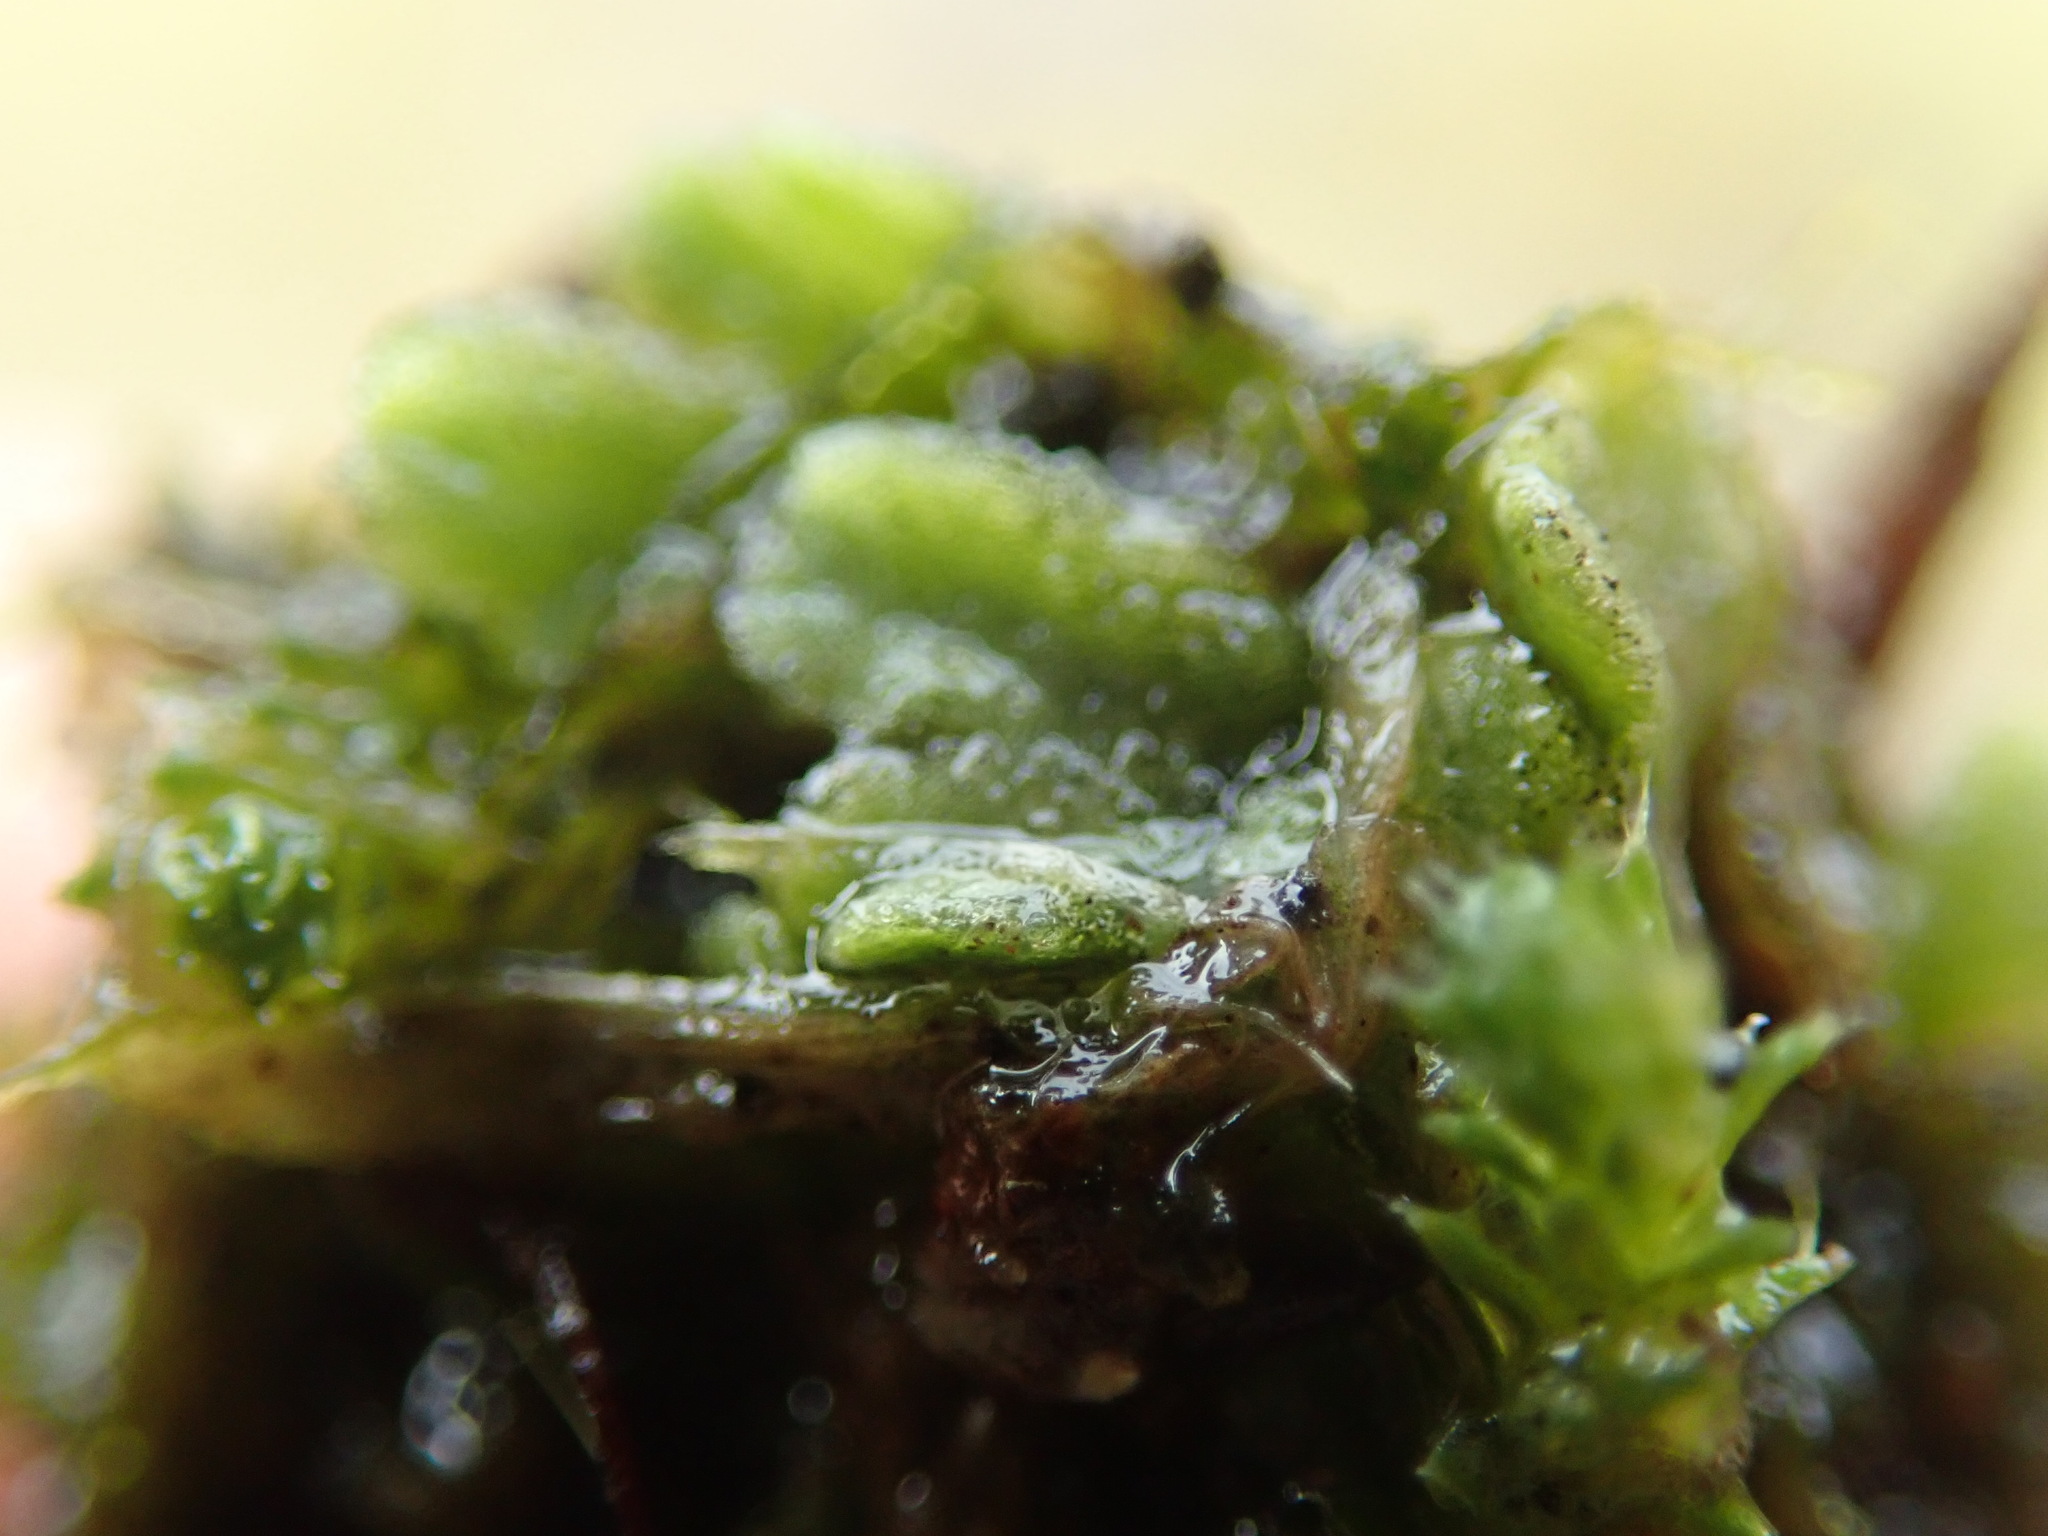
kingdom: Plantae
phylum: Marchantiophyta
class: Marchantiopsida
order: Marchantiales
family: Ricciaceae
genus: Riccia
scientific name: Riccia sorocarpa
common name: Common crystalwort
